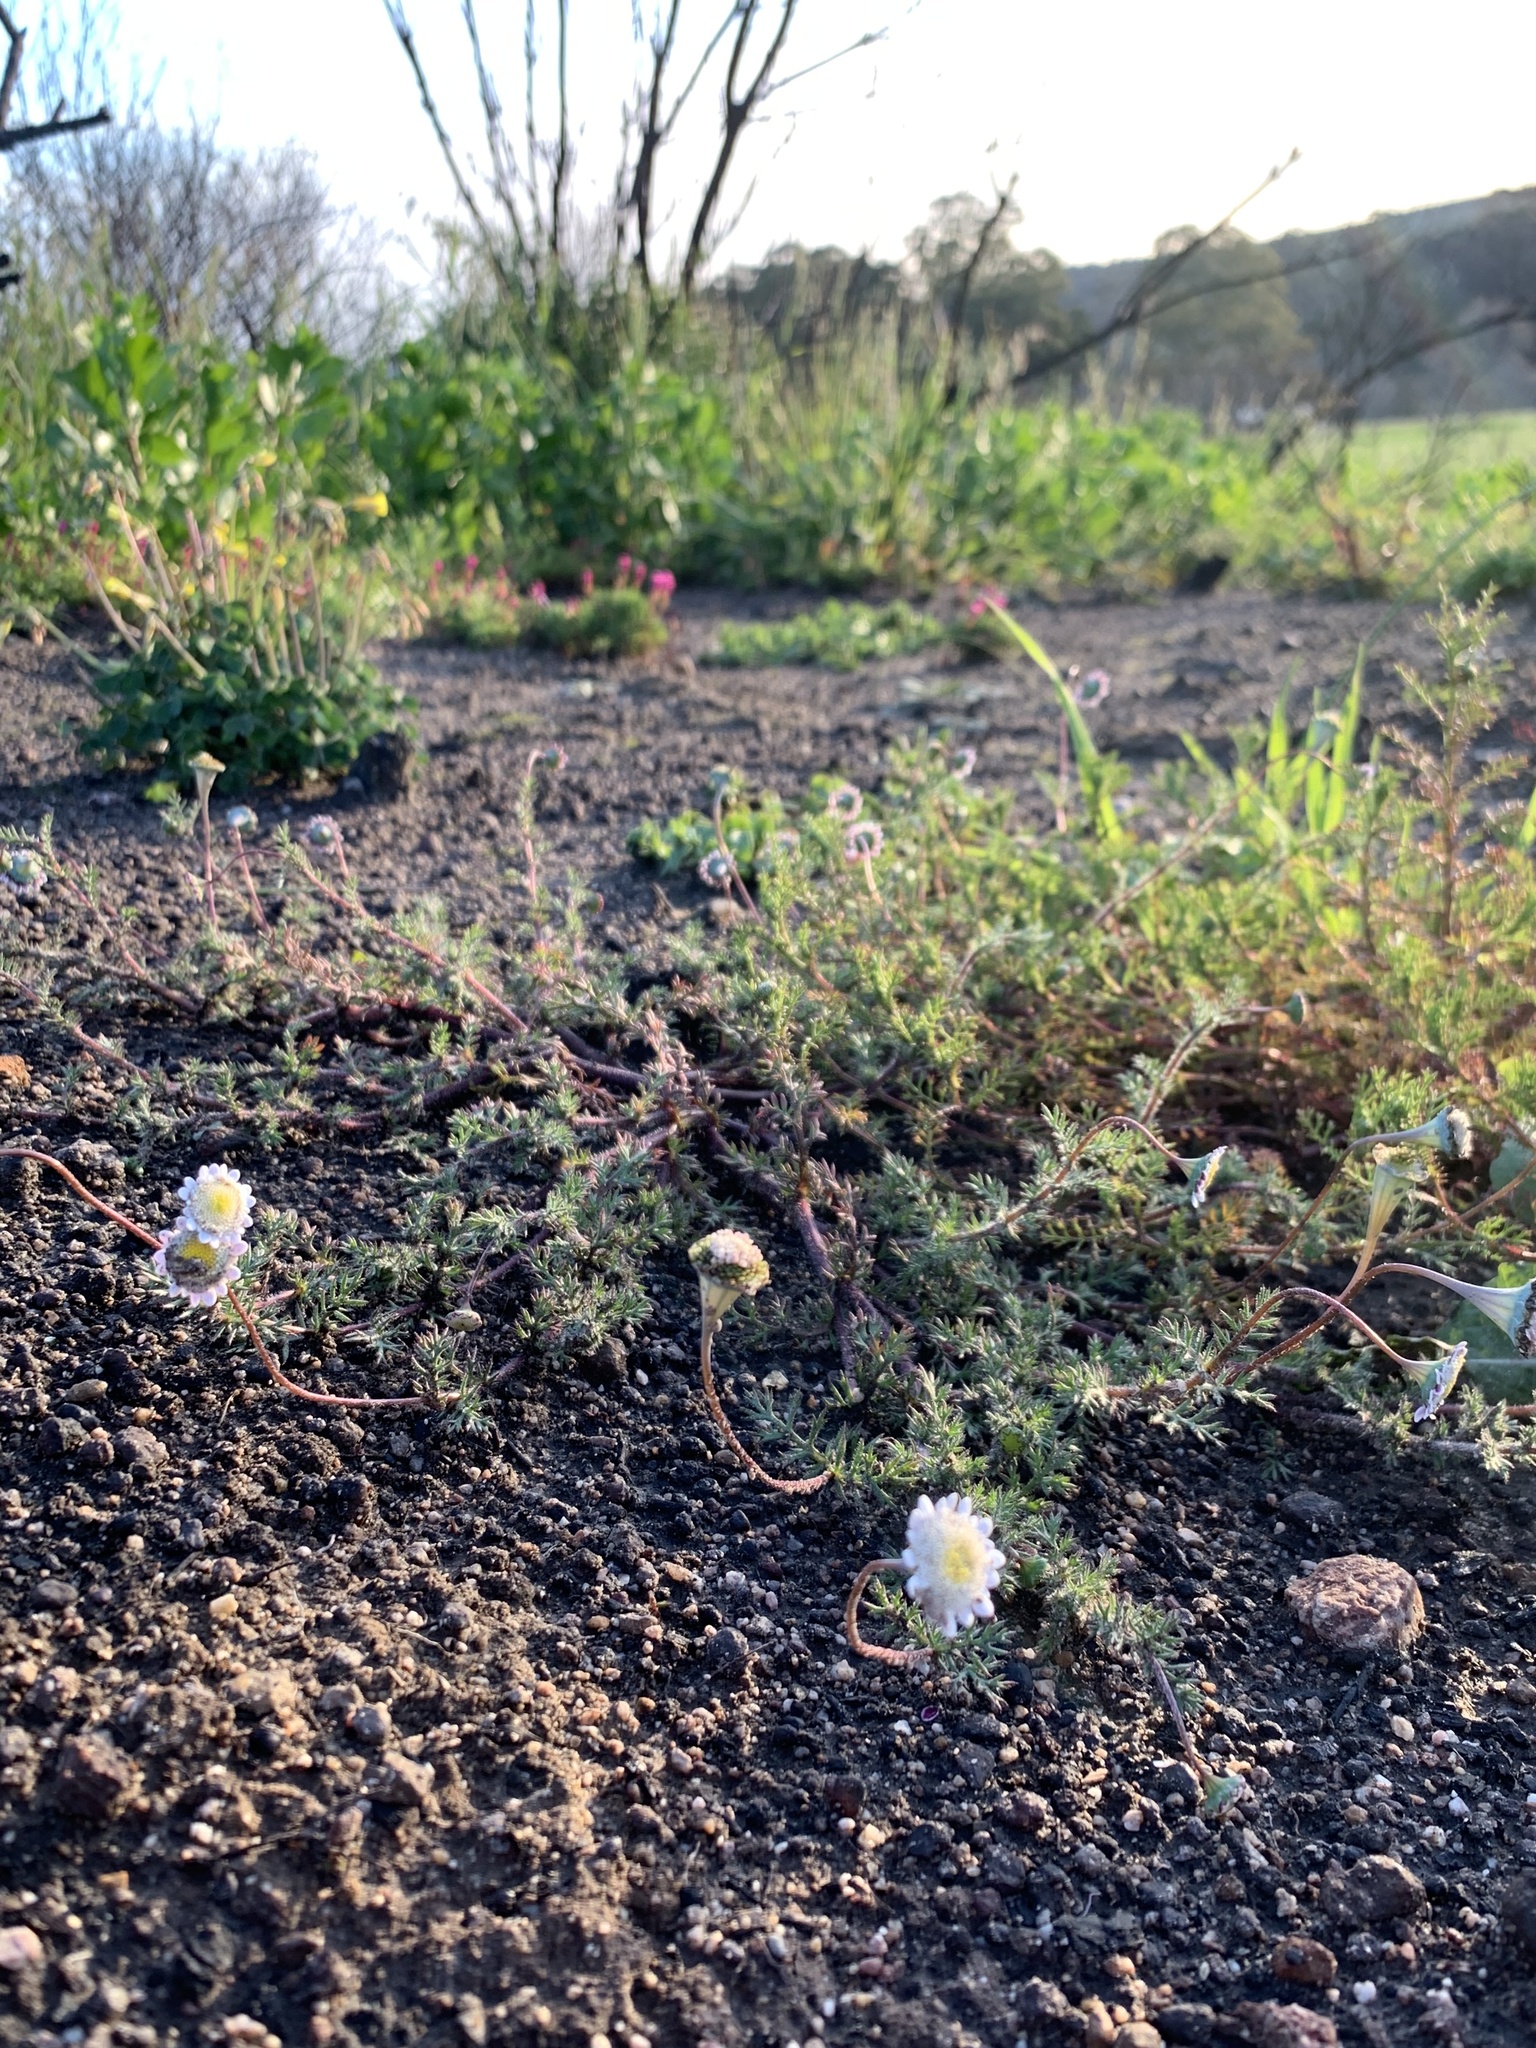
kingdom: Plantae
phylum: Tracheophyta
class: Magnoliopsida
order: Asterales
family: Asteraceae
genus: Cotula
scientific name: Cotula turbinata
